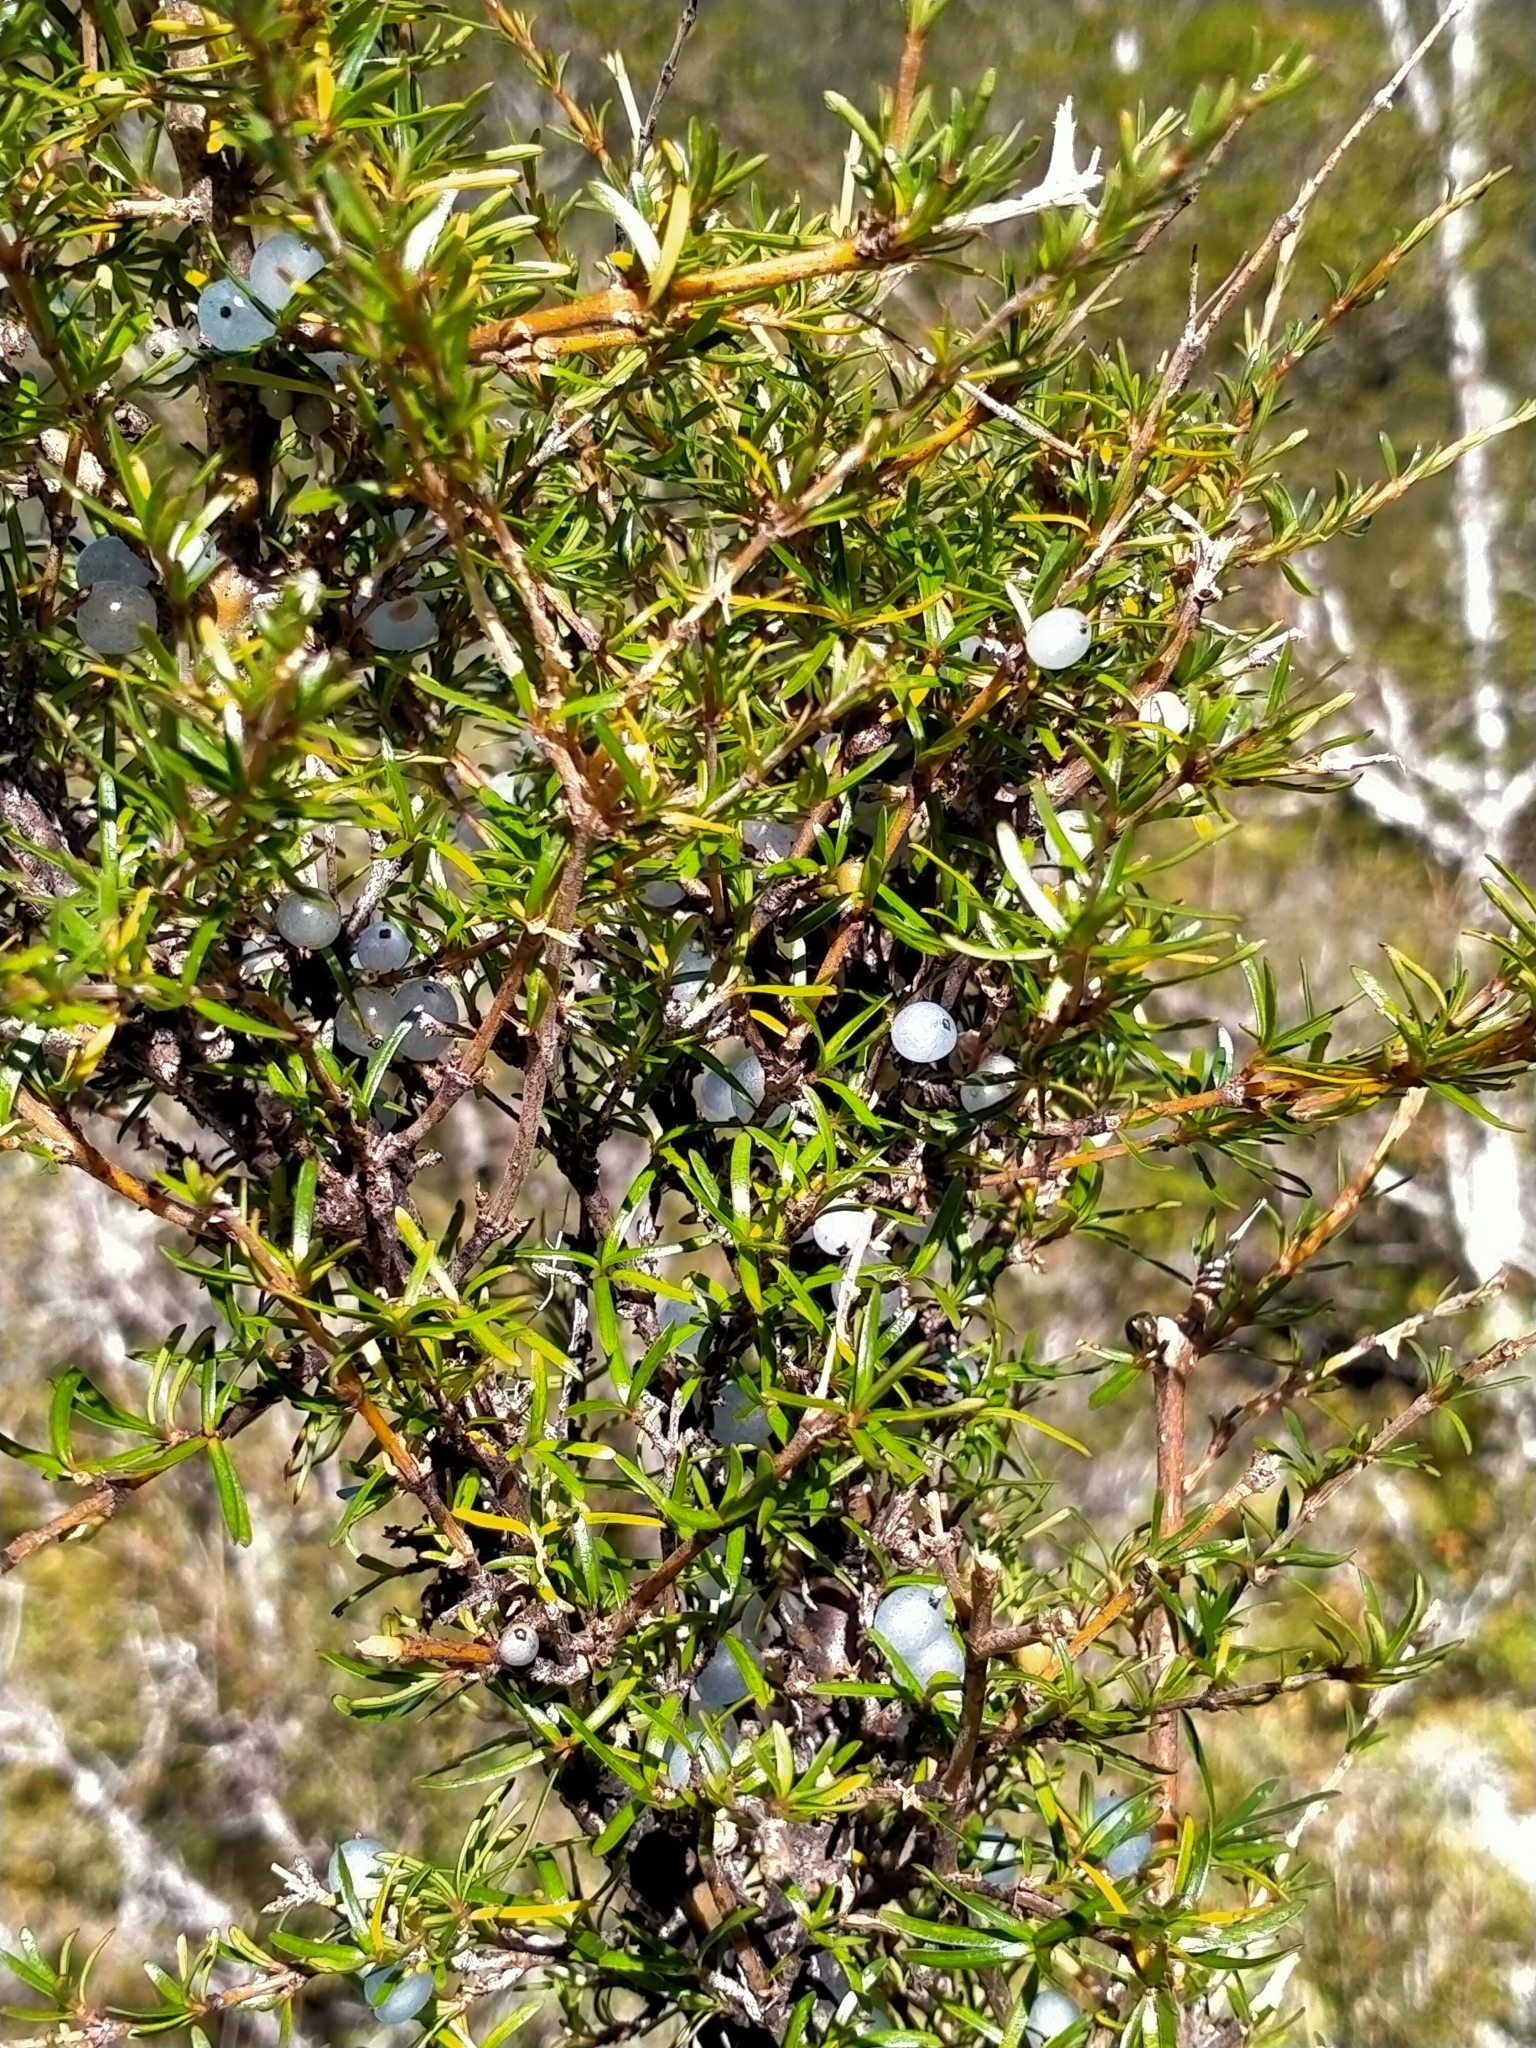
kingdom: Plantae
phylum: Tracheophyta
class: Magnoliopsida
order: Gentianales
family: Rubiaceae
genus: Coprosma
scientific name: Coprosma rugosa
